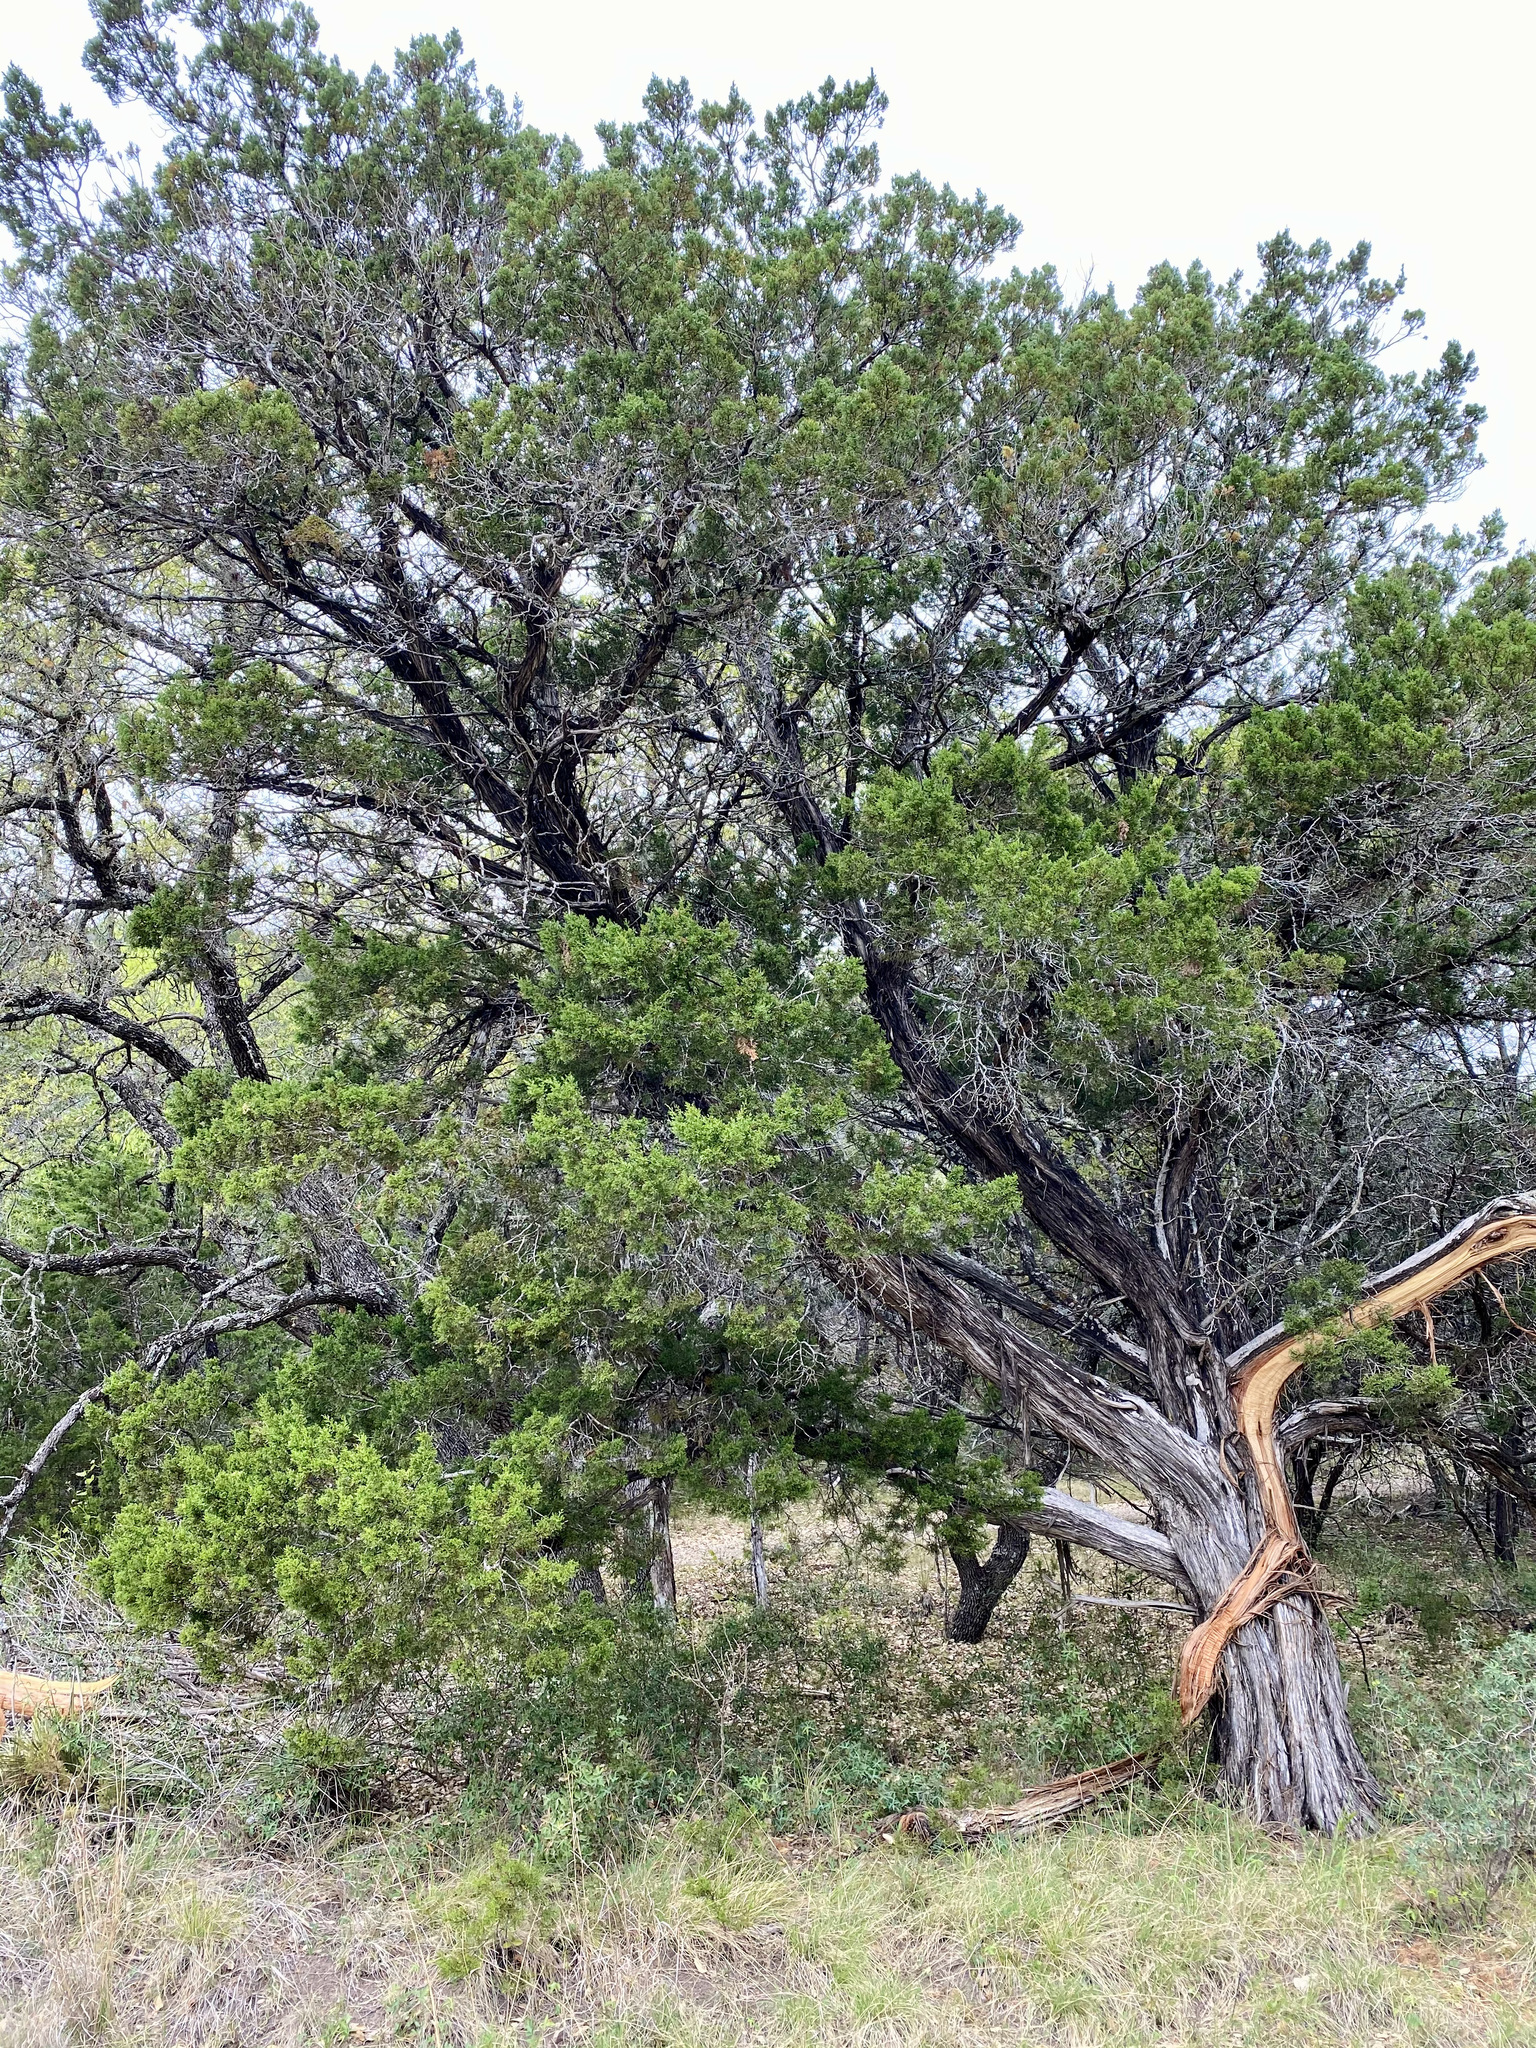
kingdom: Plantae
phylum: Tracheophyta
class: Pinopsida
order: Pinales
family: Cupressaceae
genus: Juniperus
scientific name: Juniperus ashei
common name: Mexican juniper
